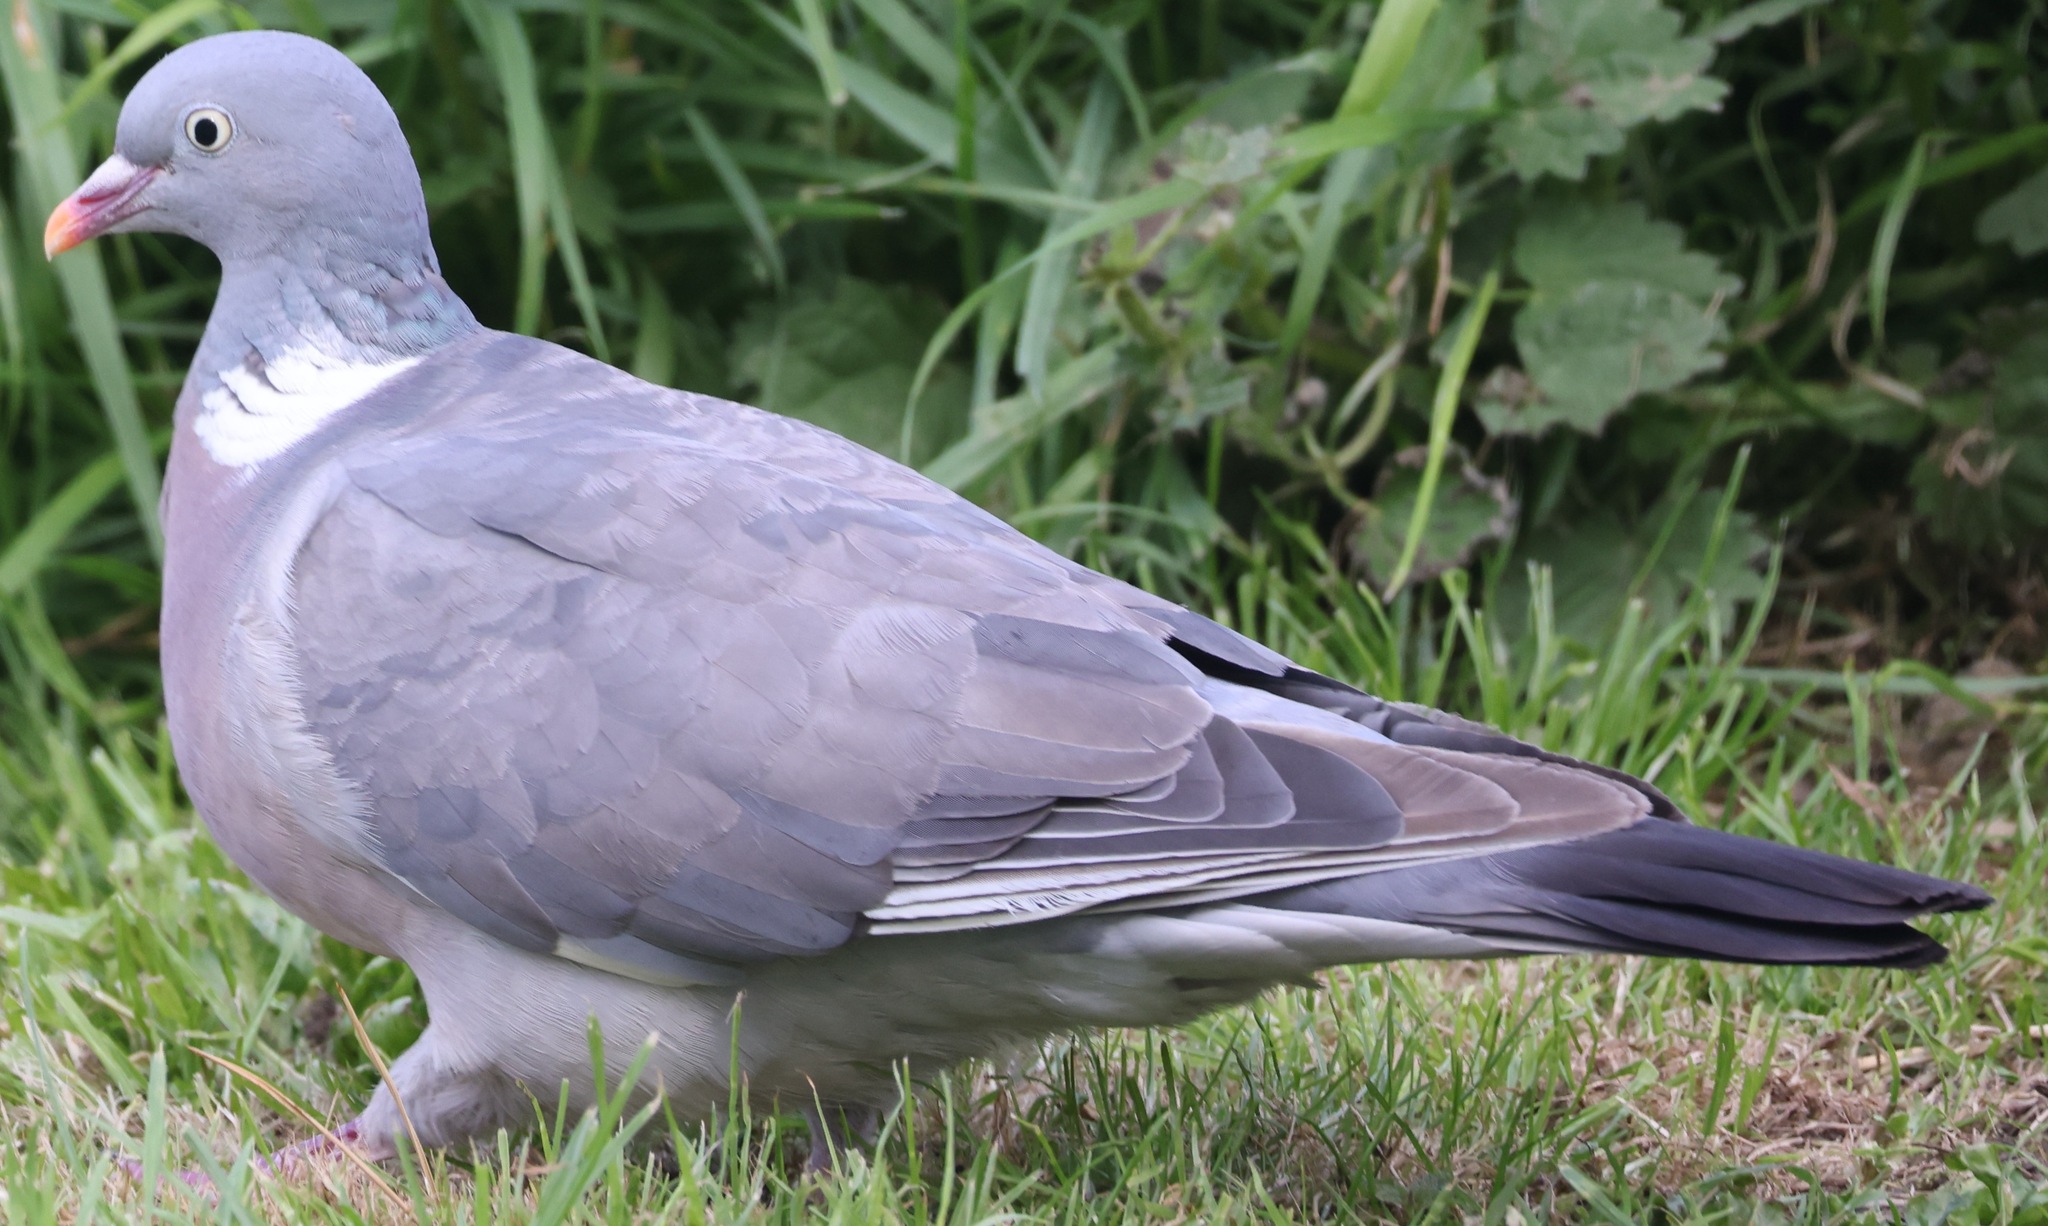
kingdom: Animalia
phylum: Chordata
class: Aves
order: Columbiformes
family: Columbidae
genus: Columba
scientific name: Columba palumbus
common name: Common wood pigeon
